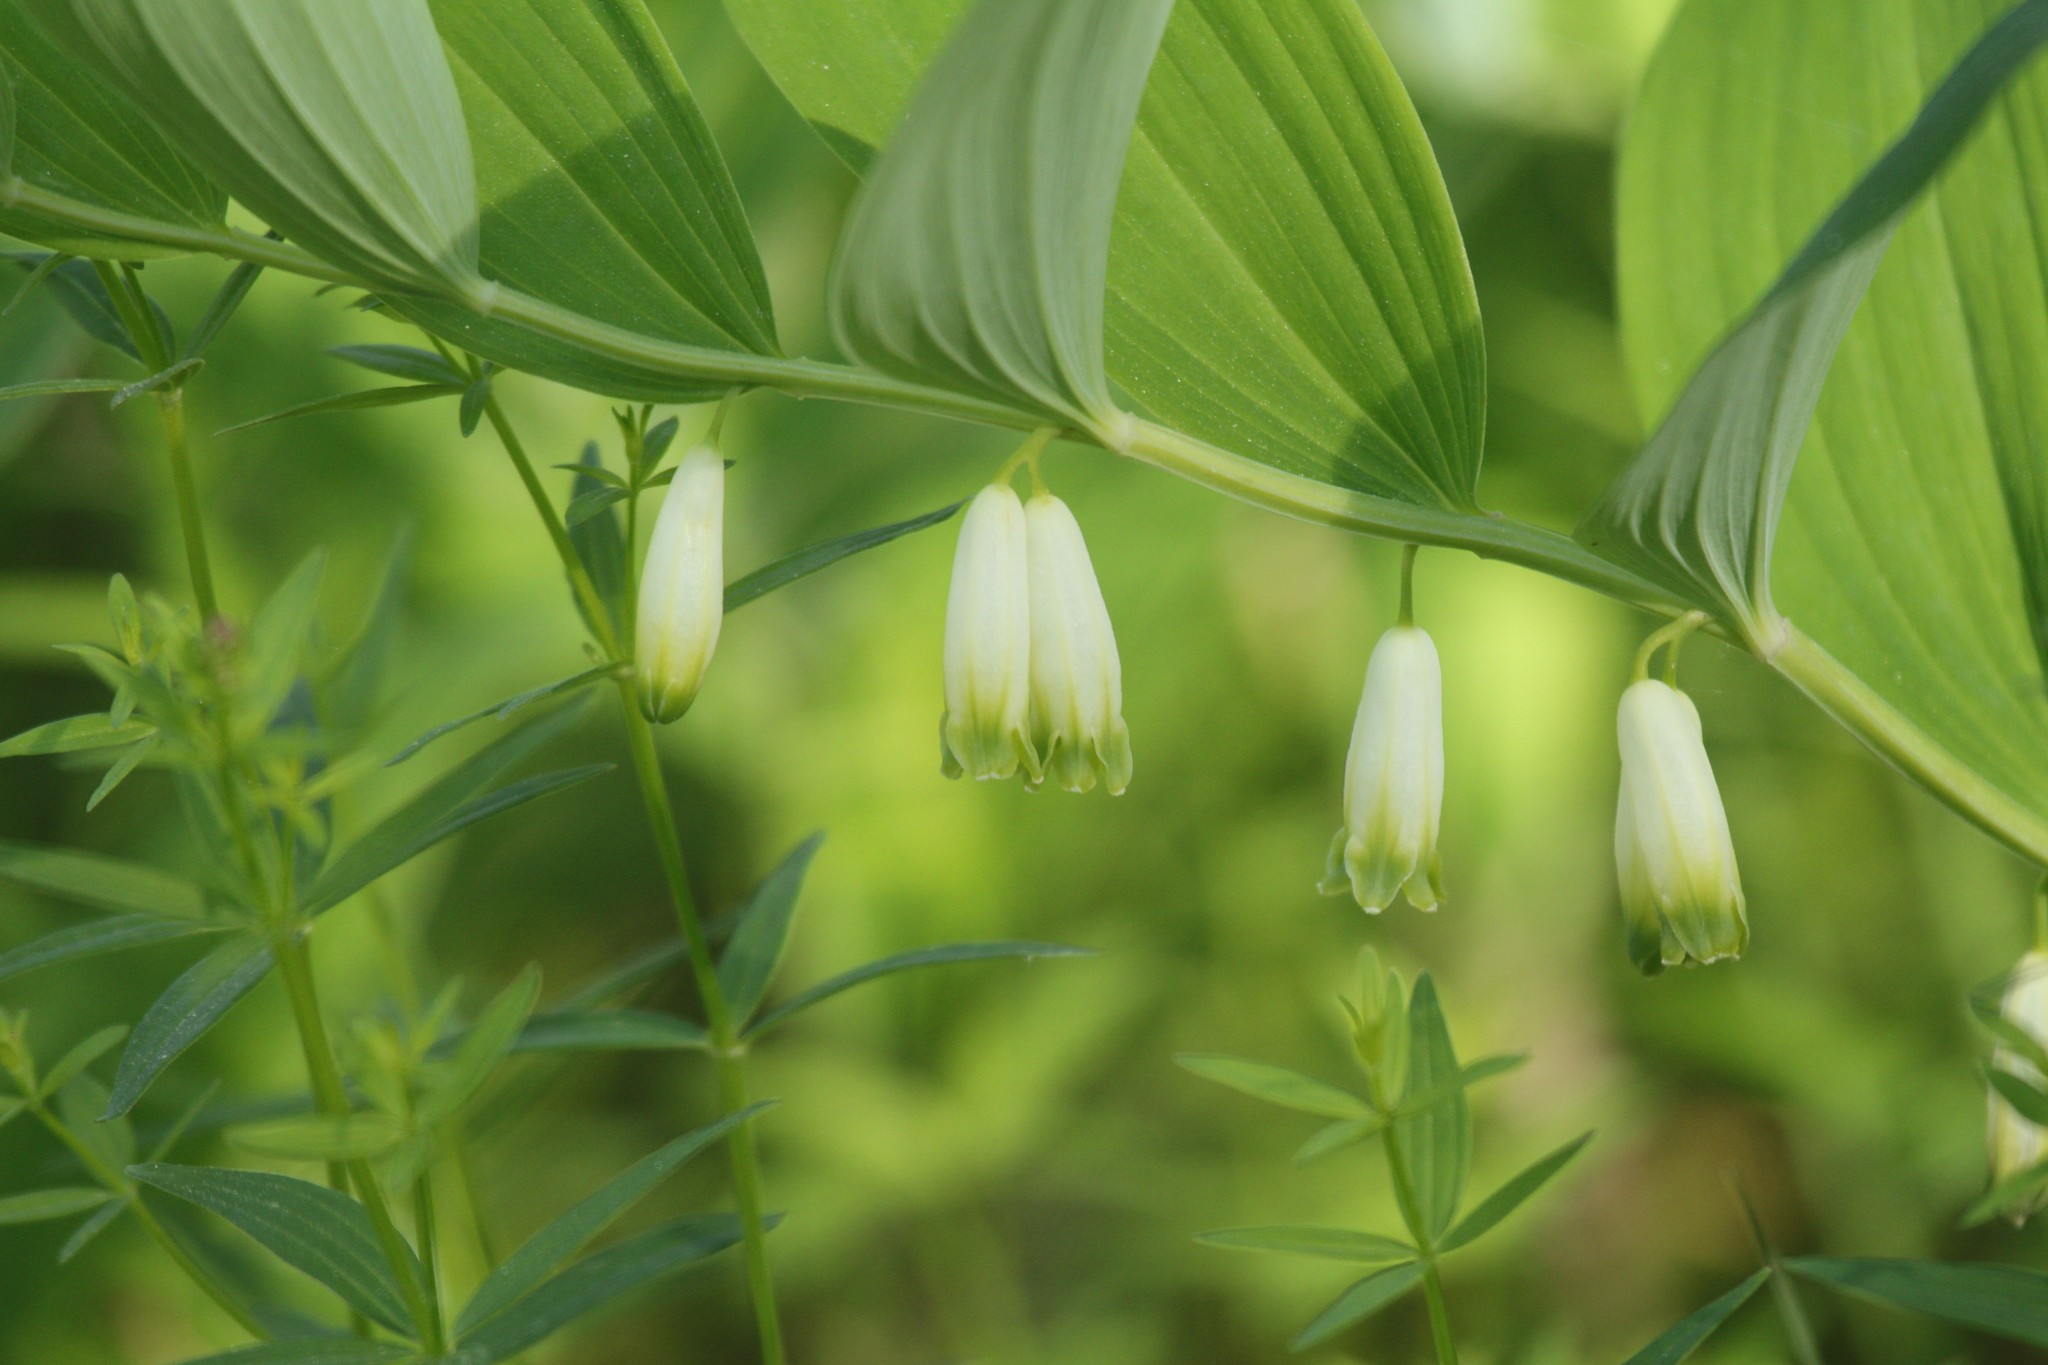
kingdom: Plantae
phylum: Tracheophyta
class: Liliopsida
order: Asparagales
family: Asparagaceae
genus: Polygonatum
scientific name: Polygonatum odoratum
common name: Angular solomon's-seal
